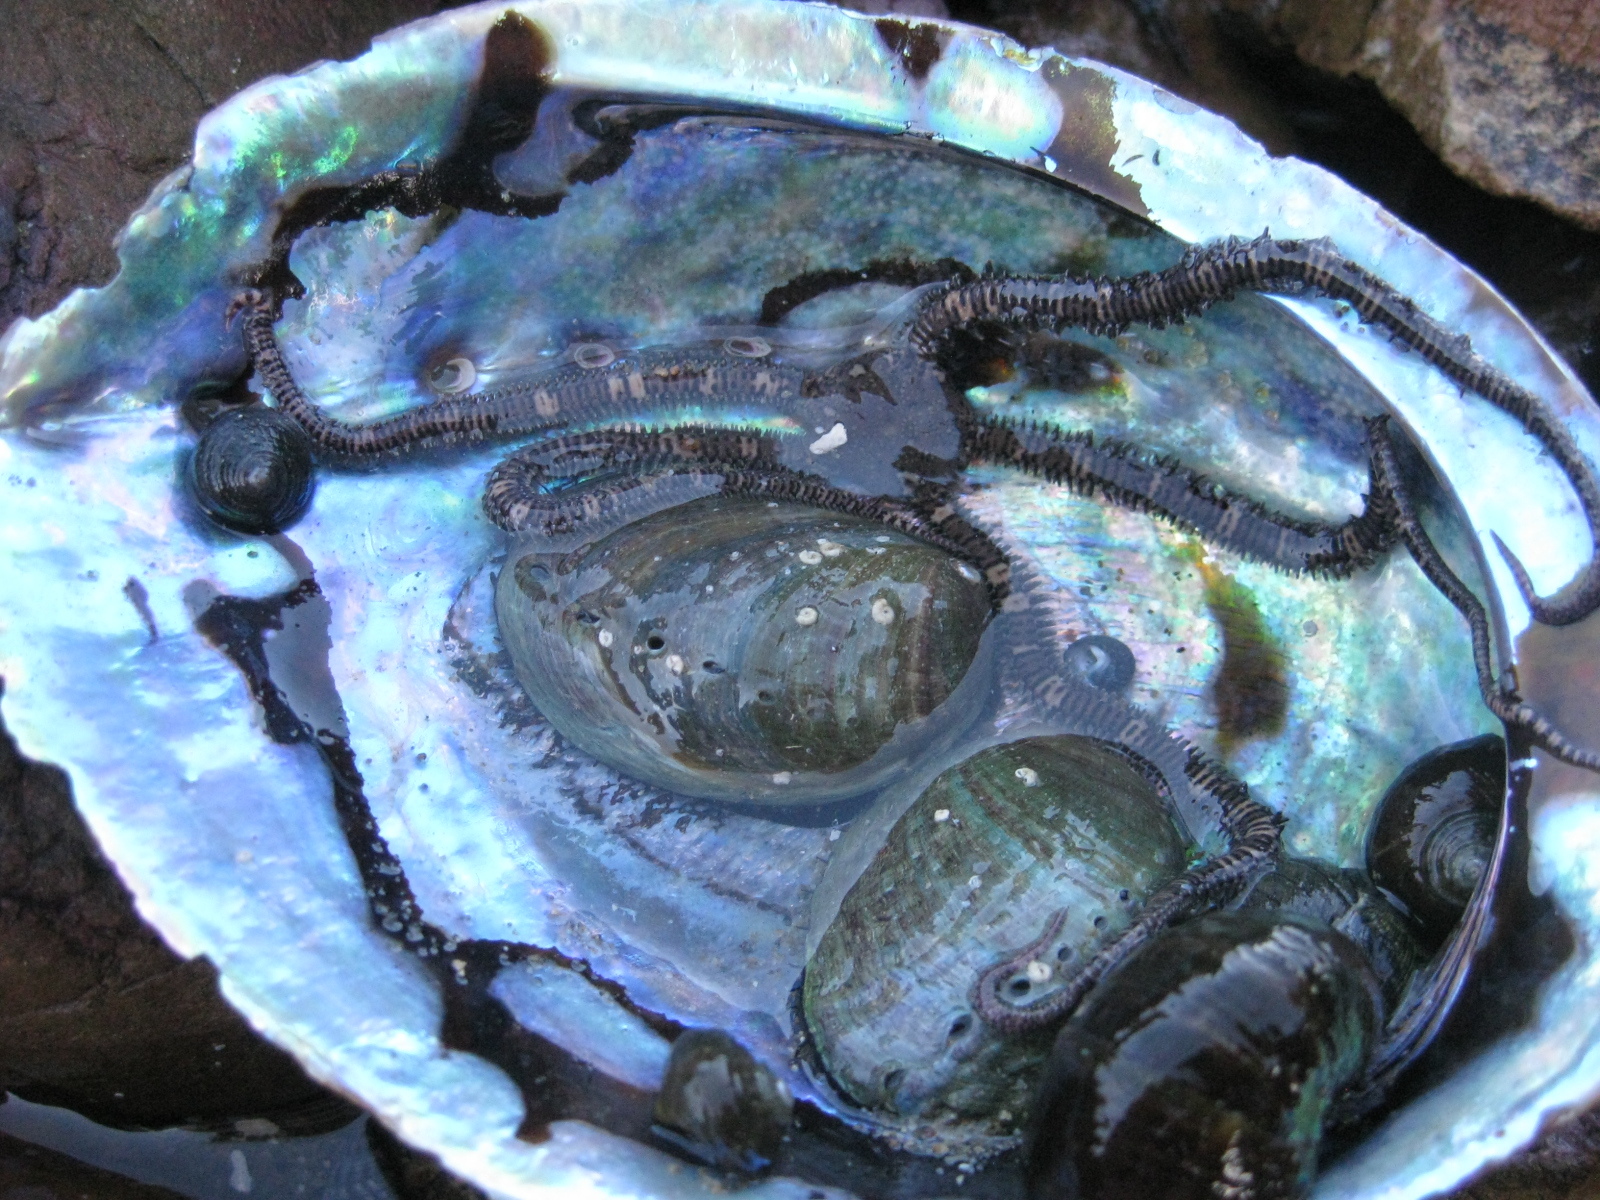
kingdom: Animalia
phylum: Mollusca
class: Gastropoda
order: Lepetellida
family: Haliotidae
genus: Haliotis
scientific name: Haliotis iris
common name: Abalone
